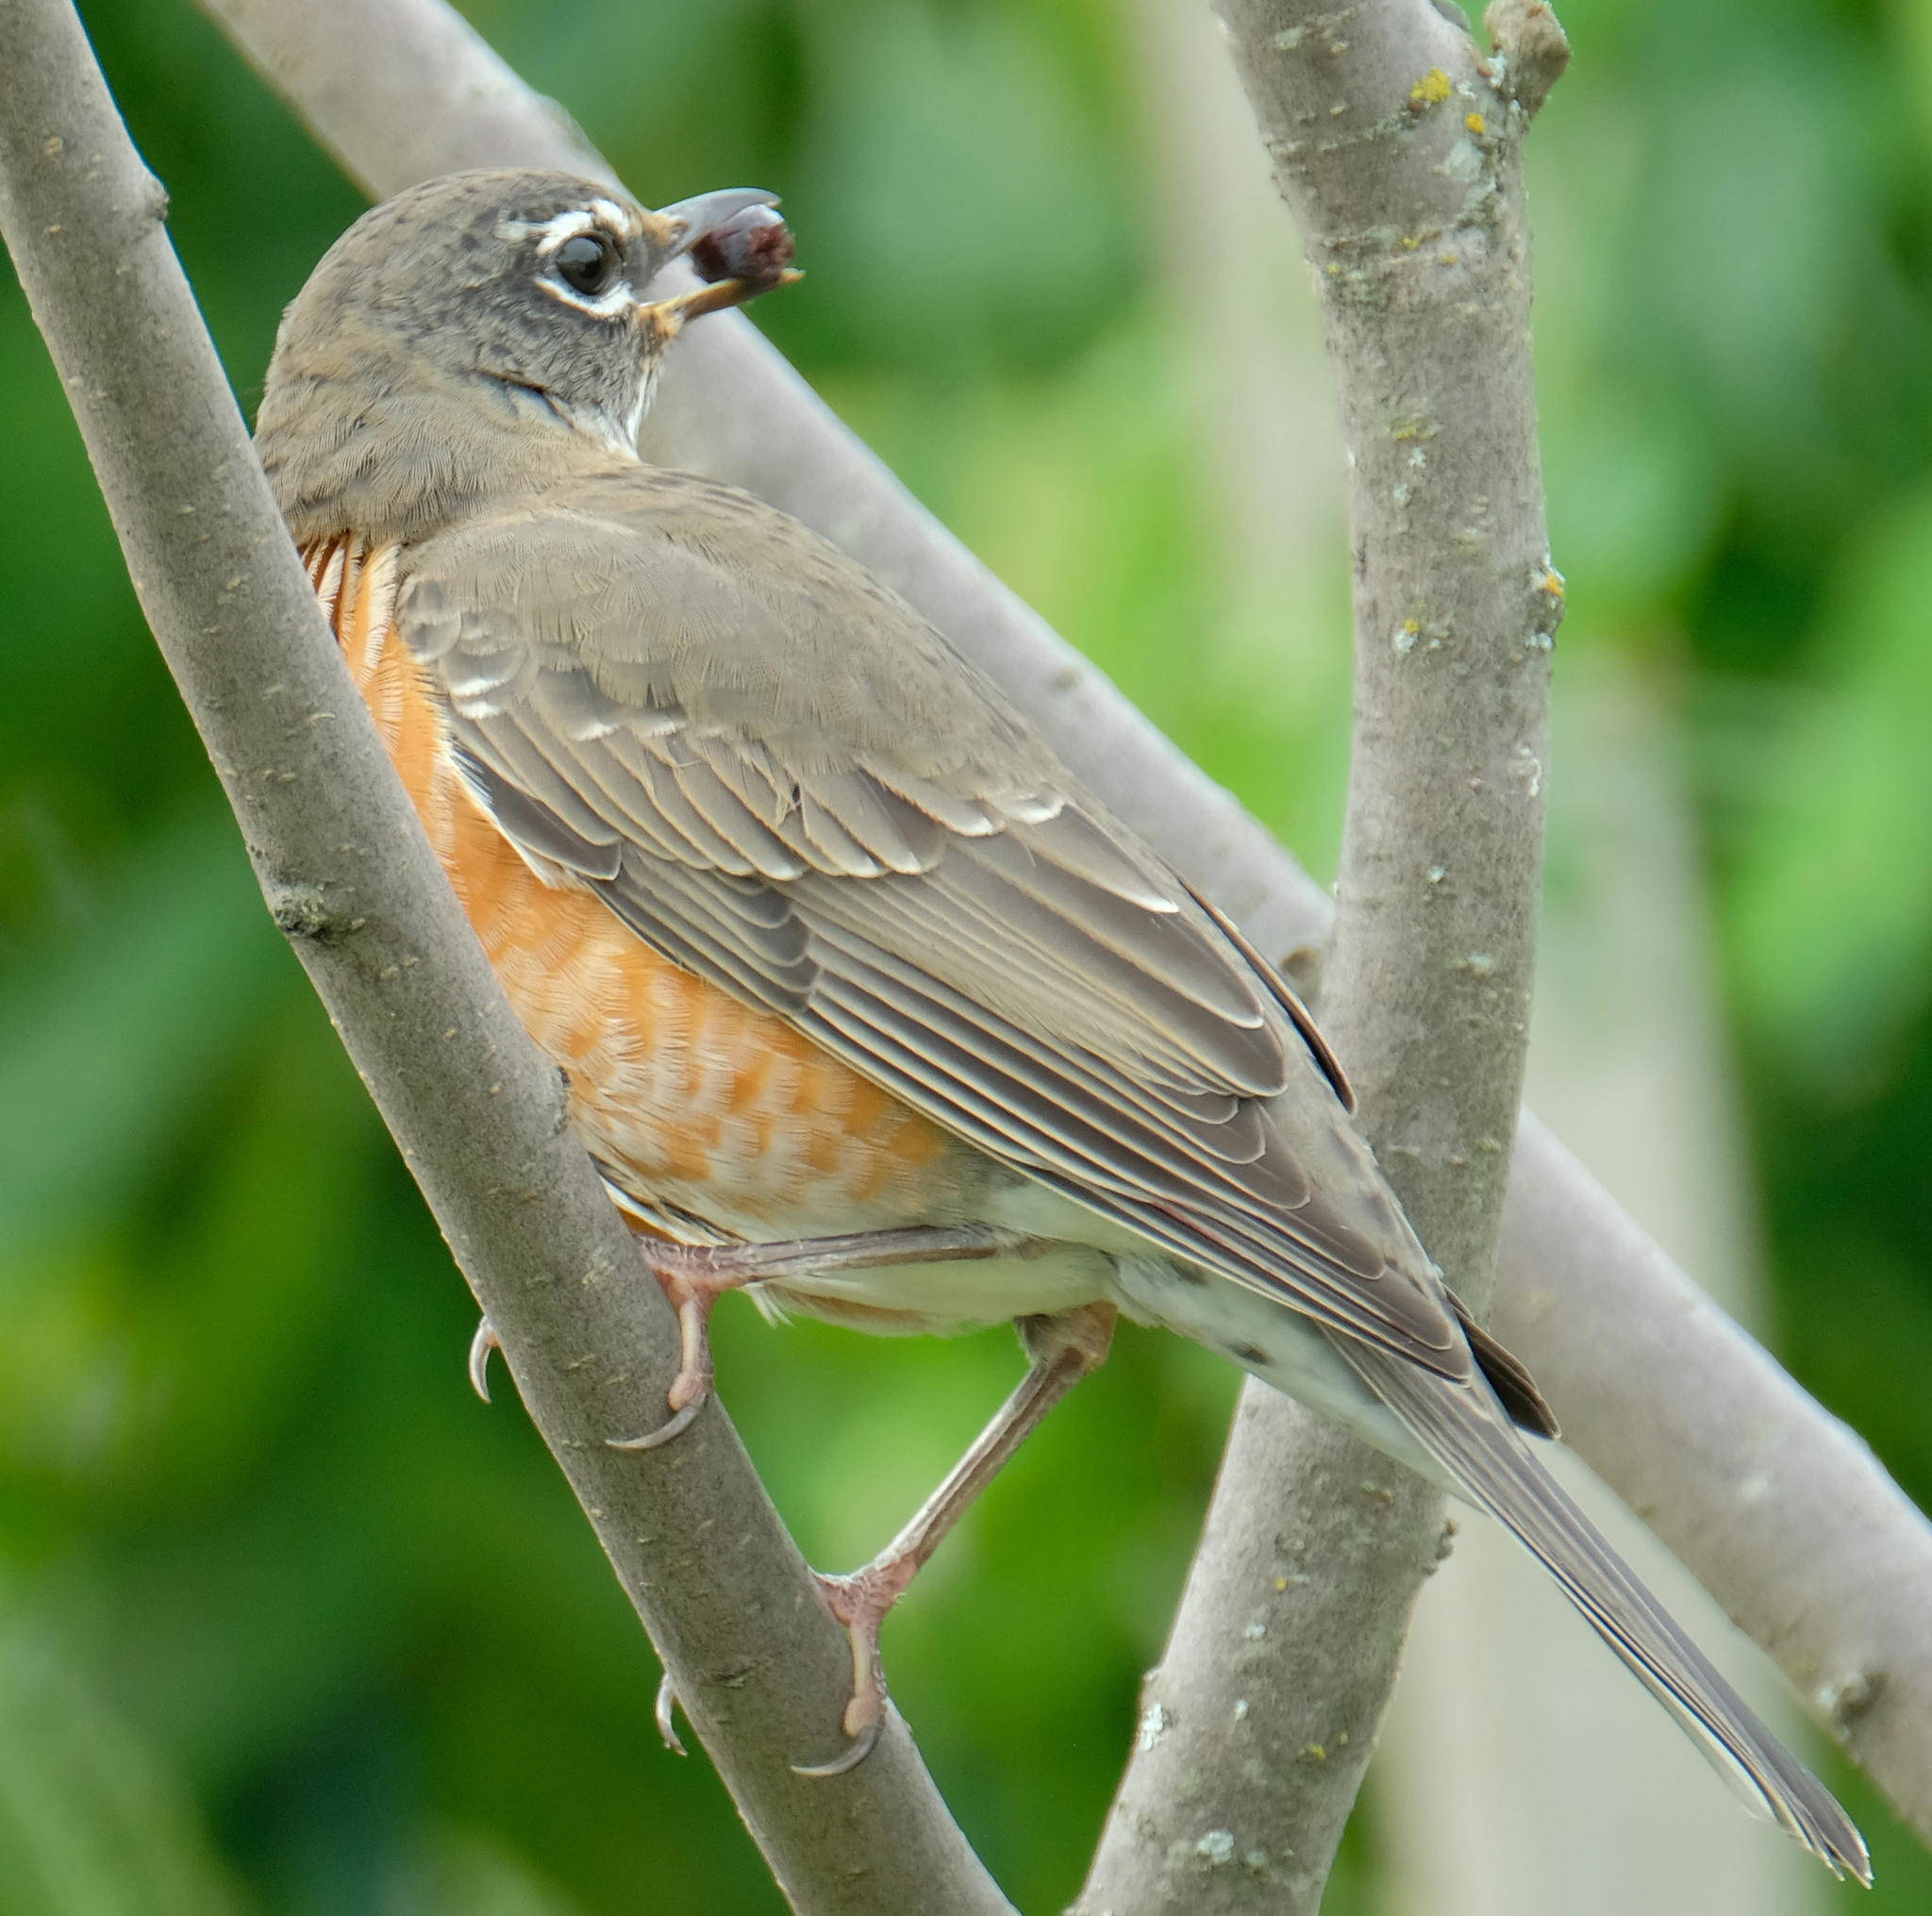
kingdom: Animalia
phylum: Chordata
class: Aves
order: Passeriformes
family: Turdidae
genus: Turdus
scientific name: Turdus migratorius
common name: American robin
